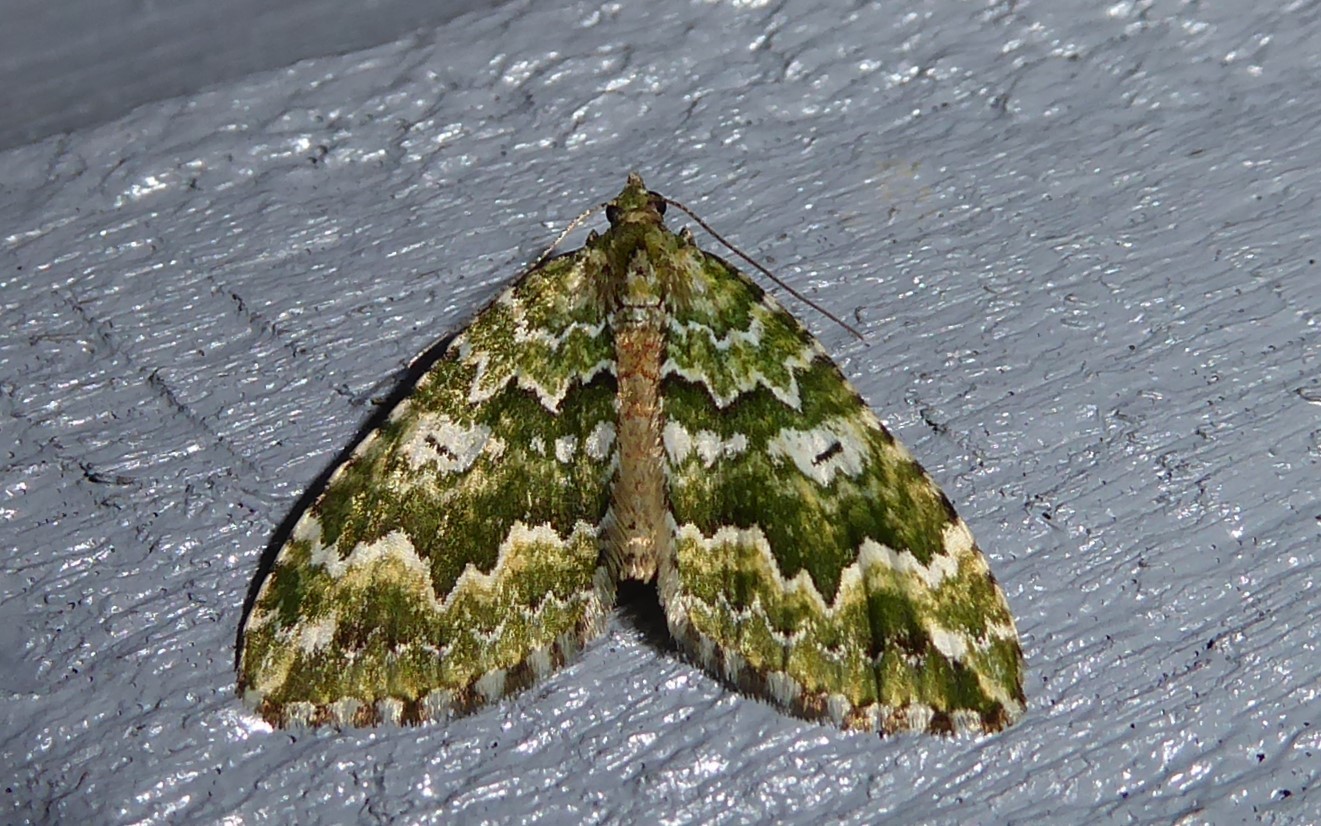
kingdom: Animalia
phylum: Arthropoda
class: Insecta
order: Lepidoptera
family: Geometridae
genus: Asaphodes
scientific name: Asaphodes beata
